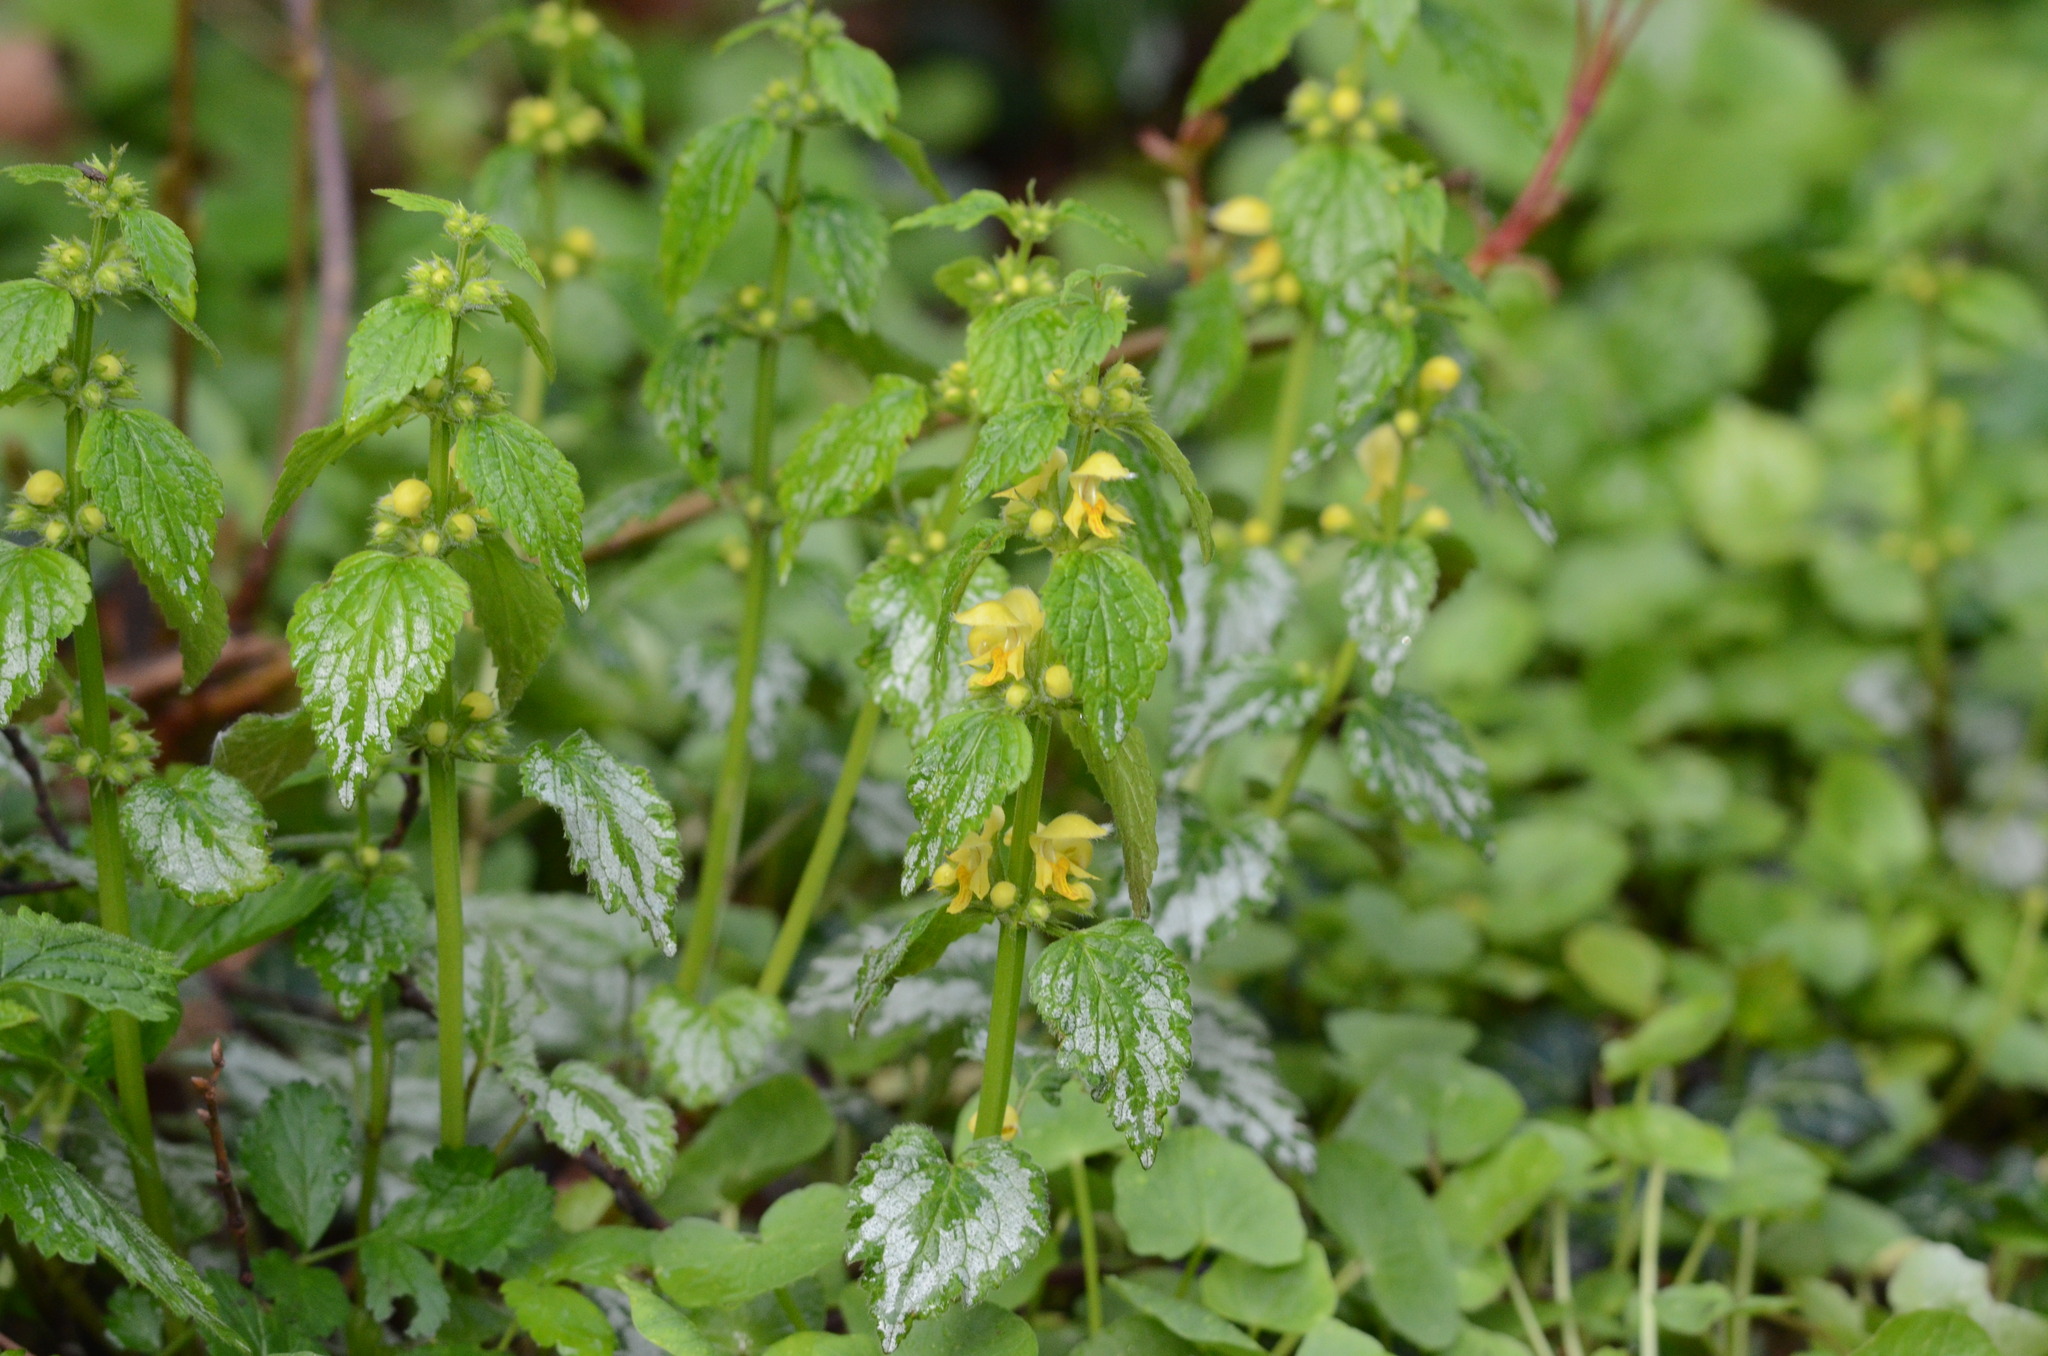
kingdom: Plantae
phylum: Tracheophyta
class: Magnoliopsida
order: Lamiales
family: Lamiaceae
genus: Lamium
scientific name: Lamium galeobdolon
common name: Yellow archangel
